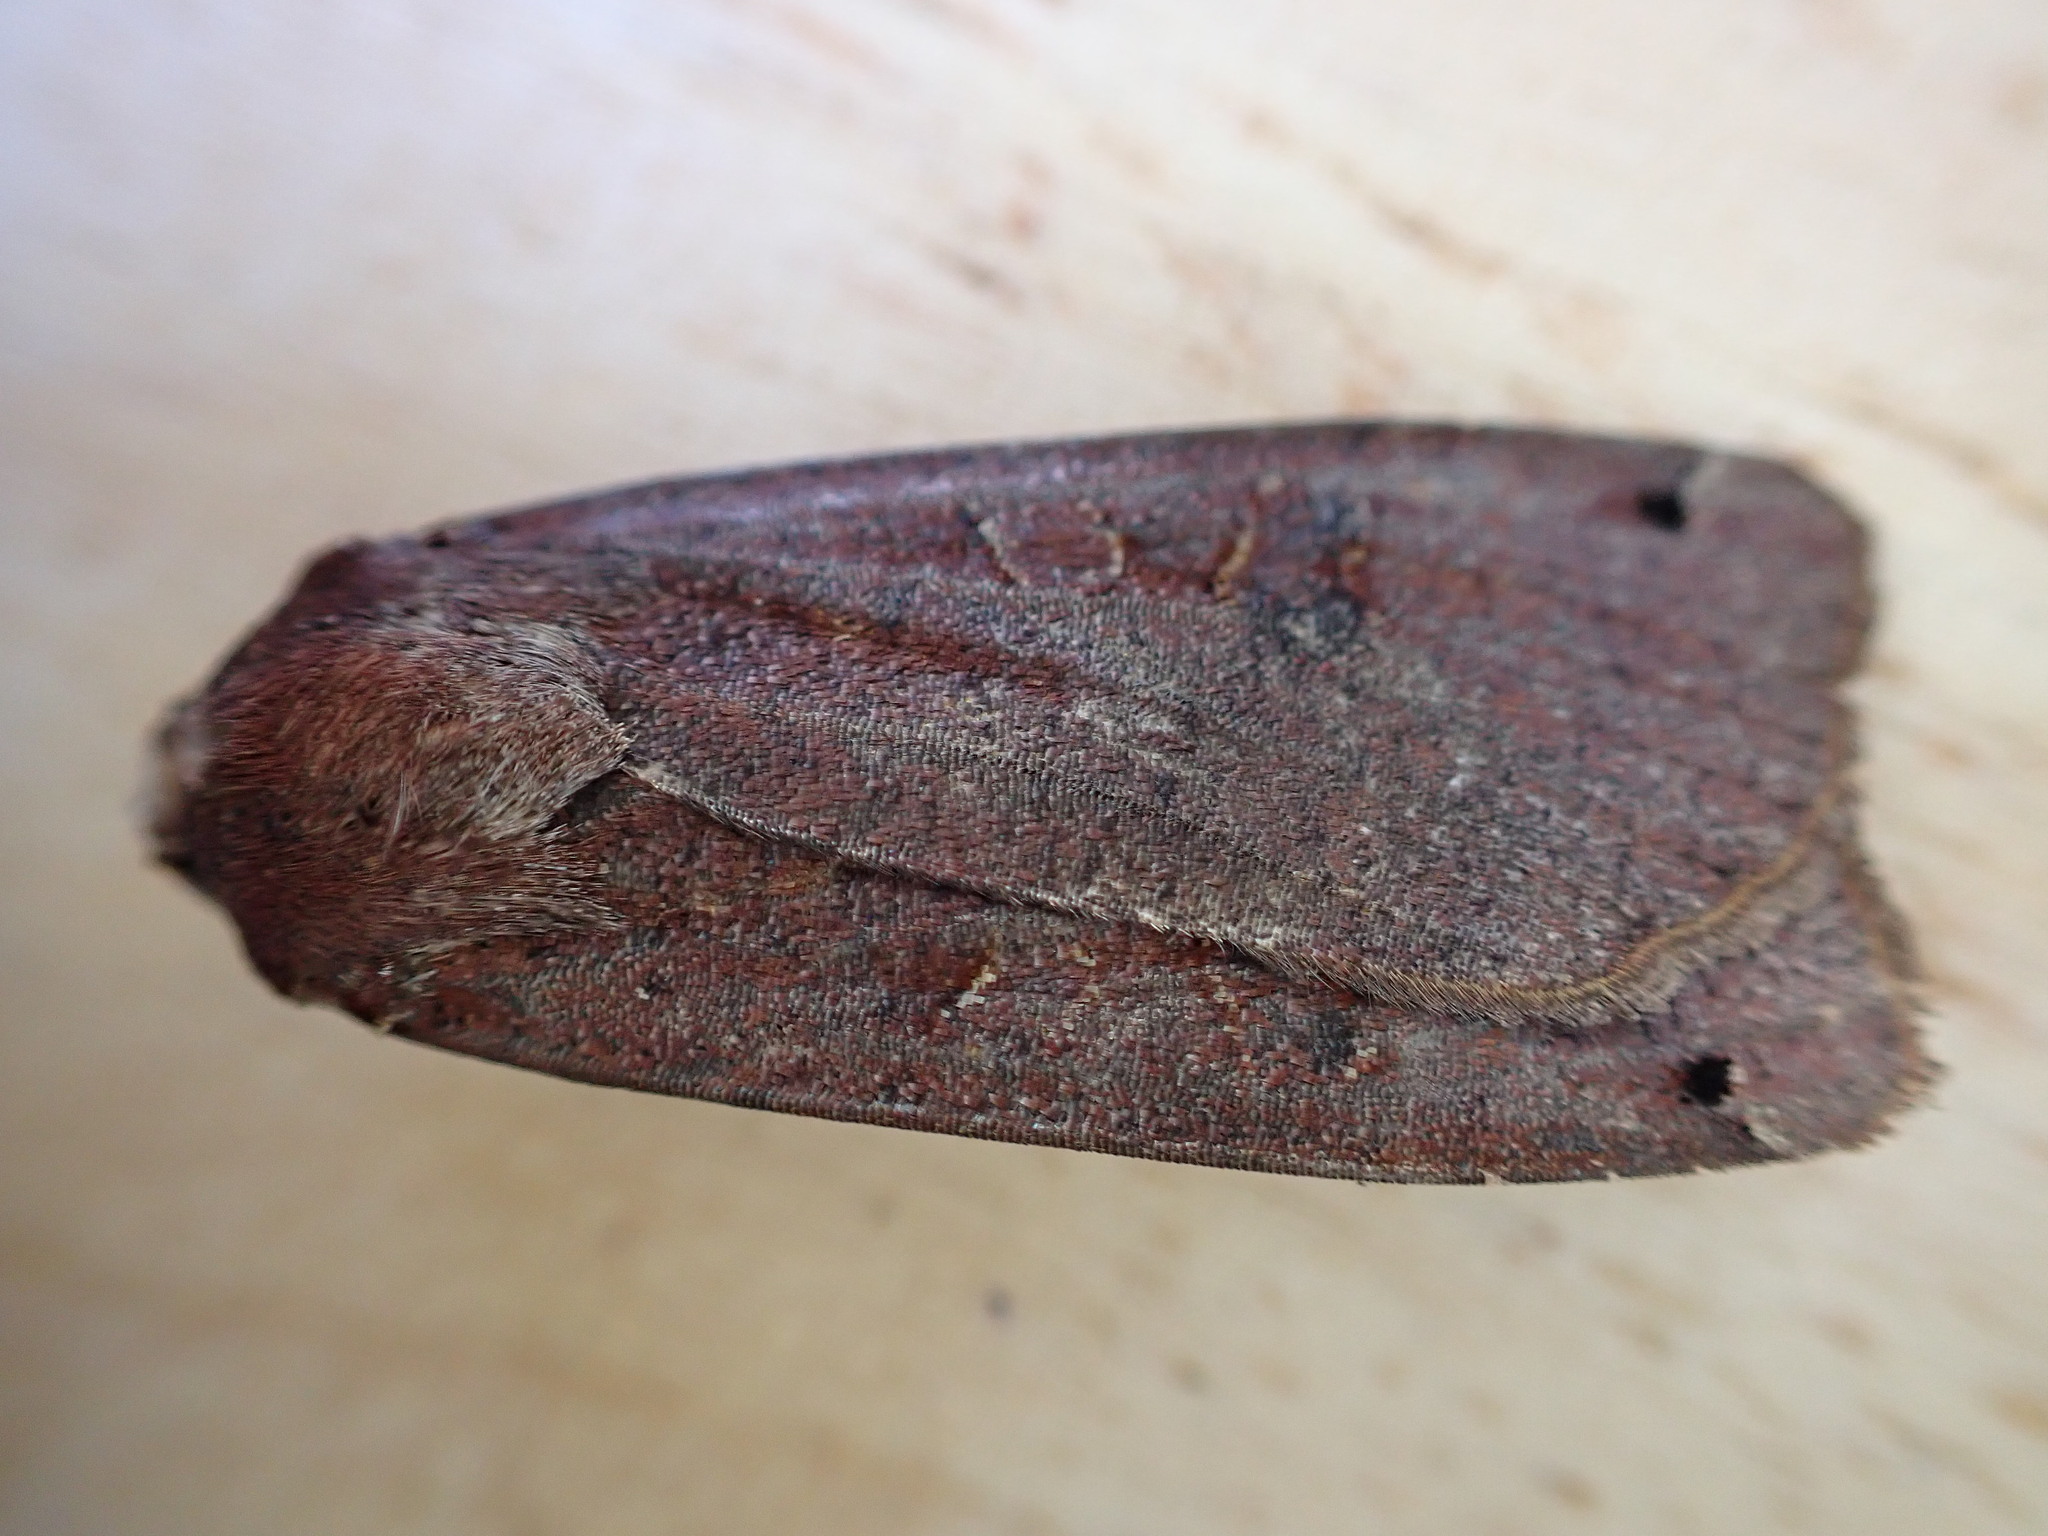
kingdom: Animalia
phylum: Arthropoda
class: Insecta
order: Lepidoptera
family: Noctuidae
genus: Noctua
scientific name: Noctua pronuba
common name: Large yellow underwing
